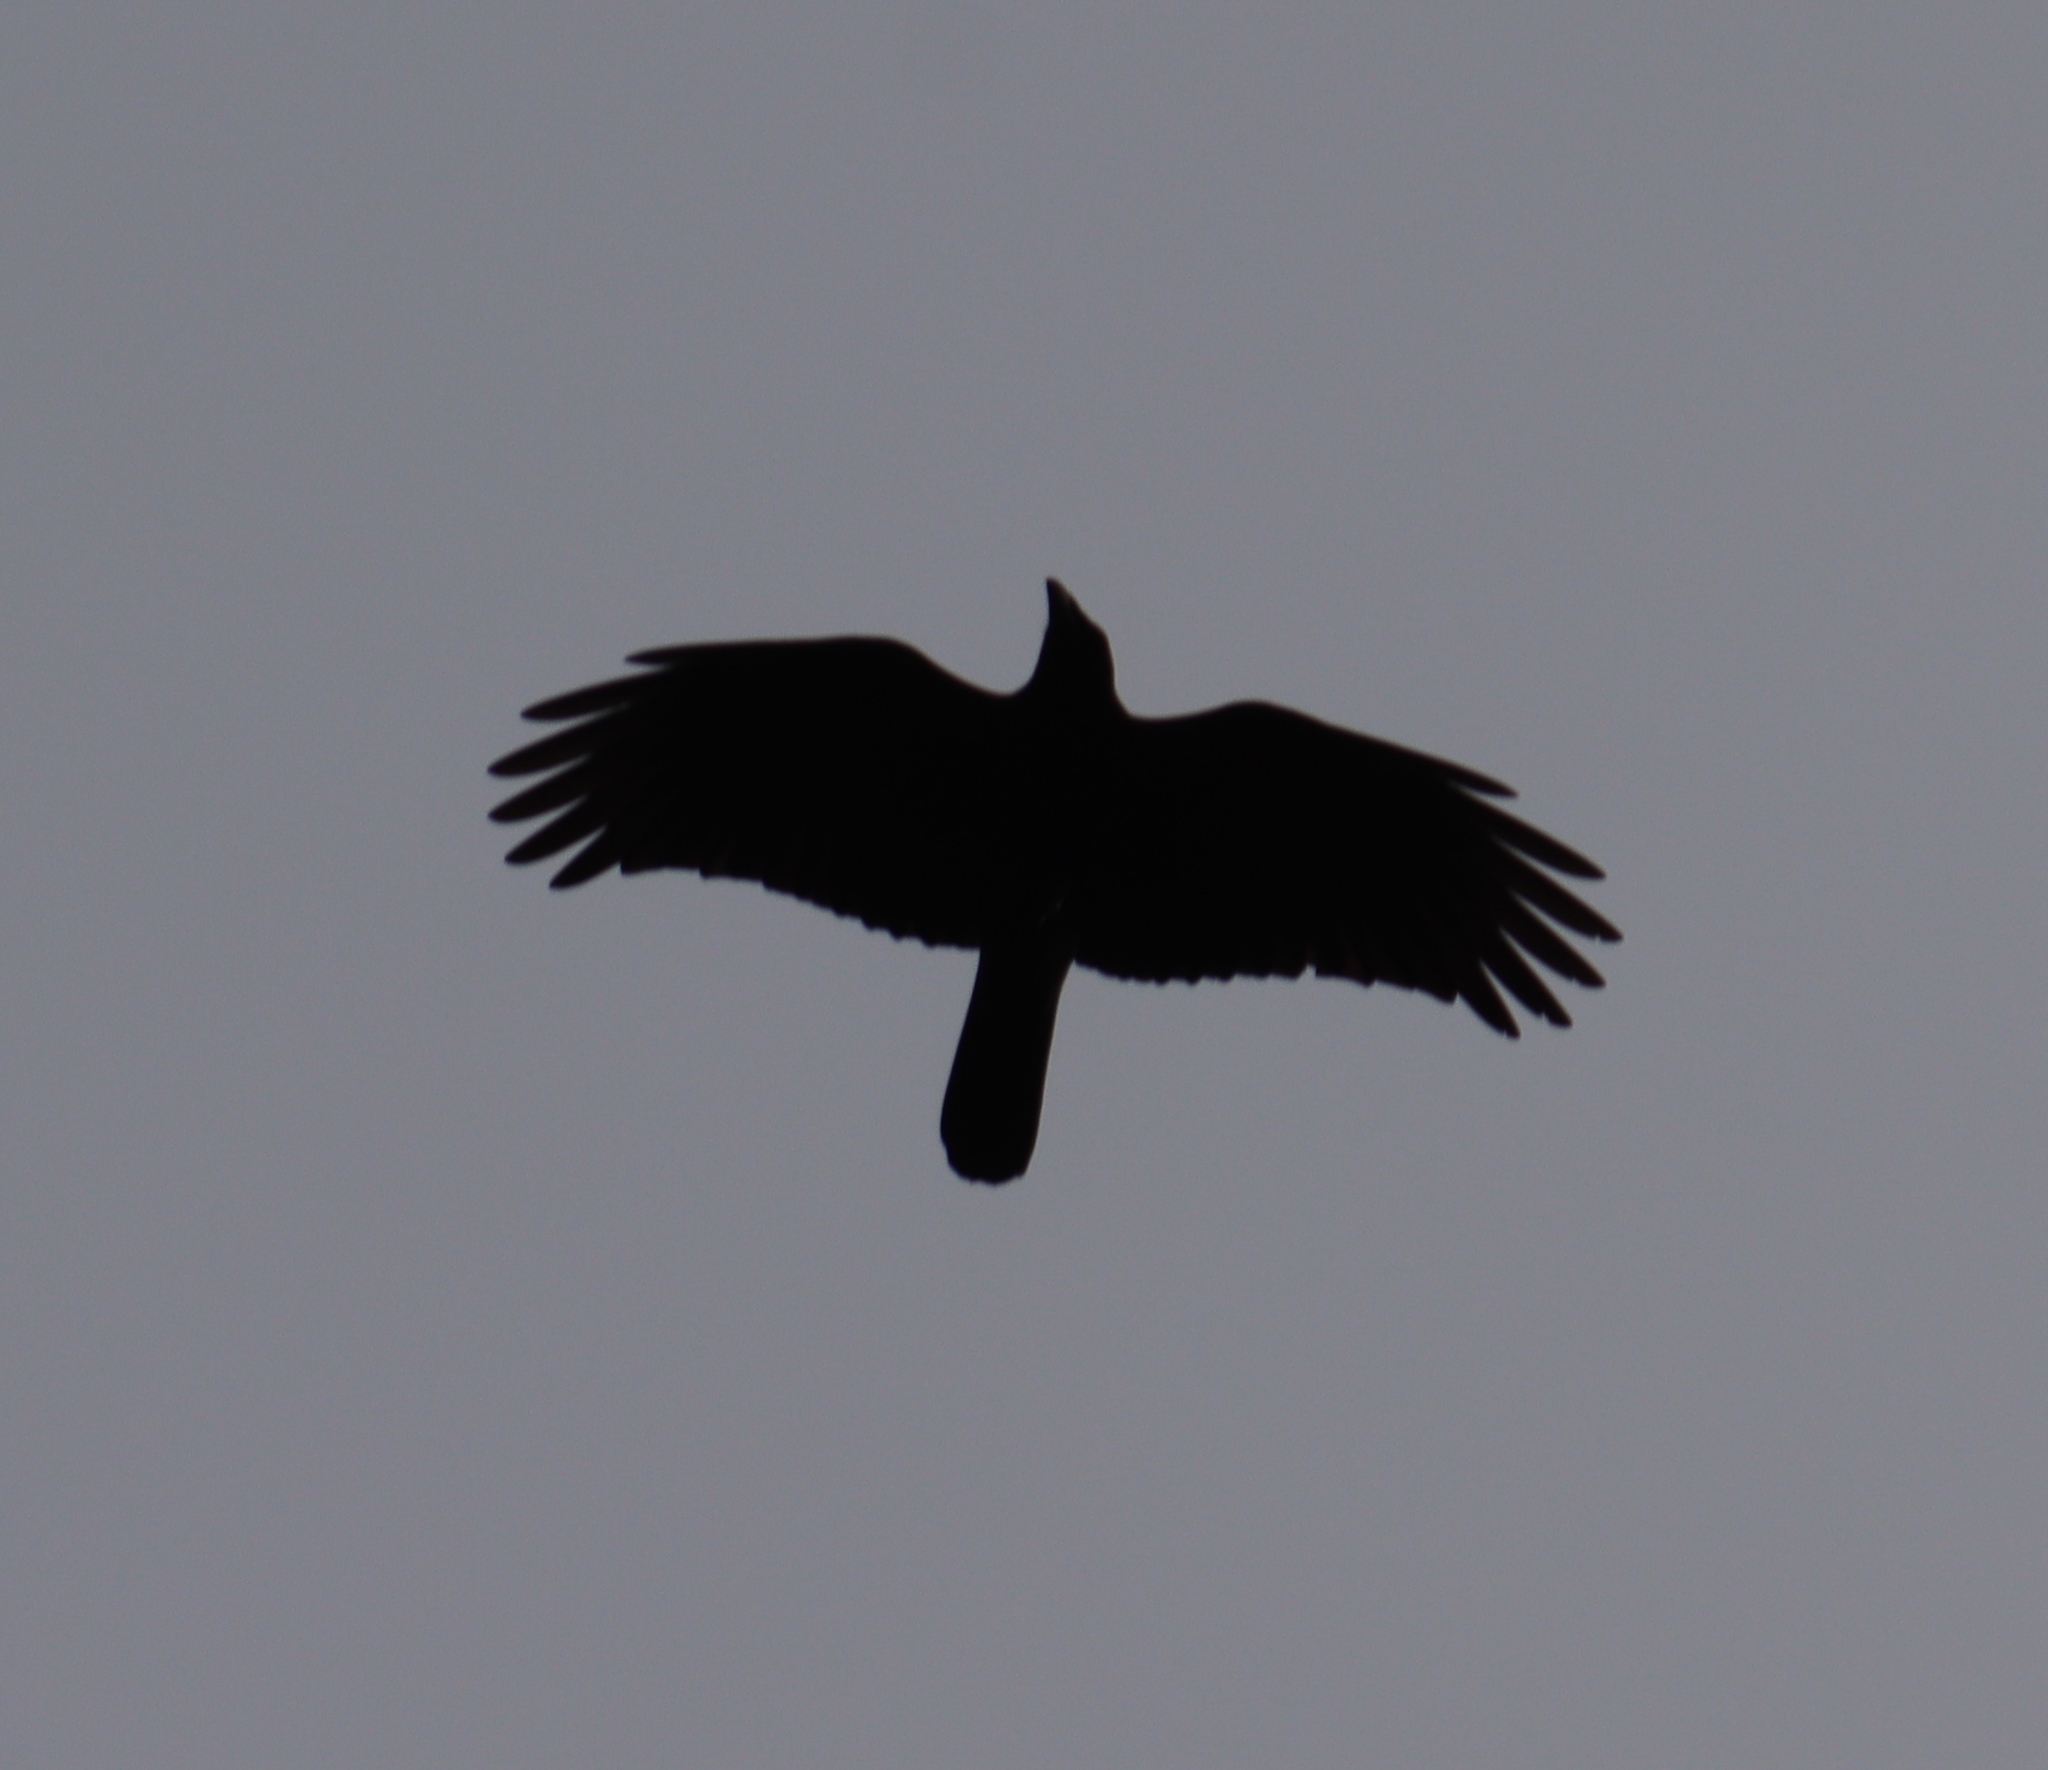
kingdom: Animalia
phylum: Chordata
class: Aves
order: Passeriformes
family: Corvidae
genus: Corvus
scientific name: Corvus corone
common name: Carrion crow
